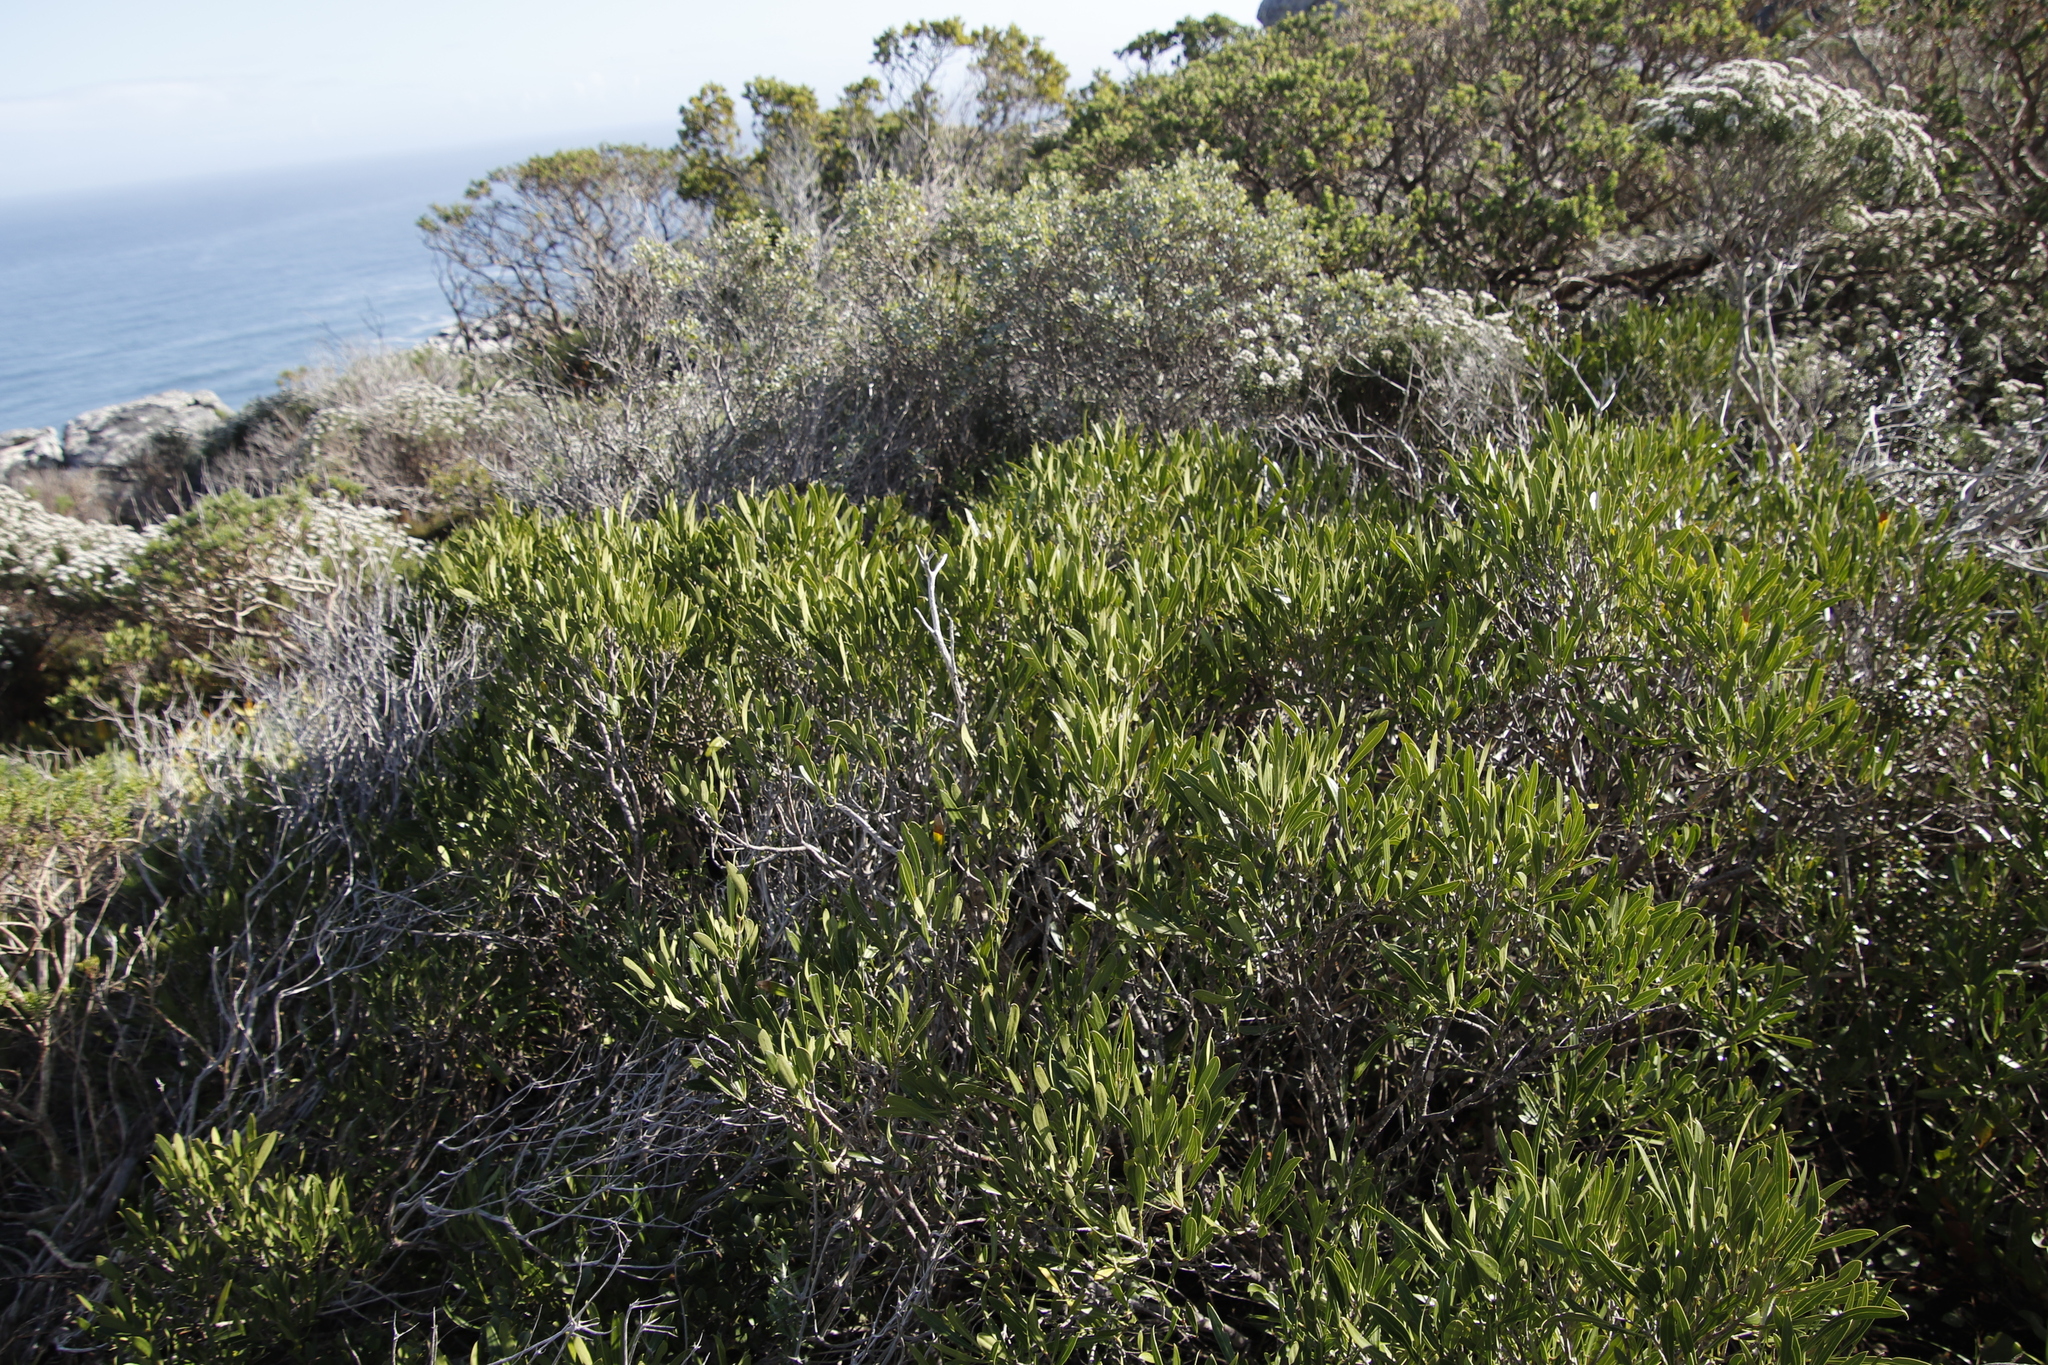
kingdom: Plantae
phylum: Tracheophyta
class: Magnoliopsida
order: Lamiales
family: Oleaceae
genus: Olea
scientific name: Olea exasperata
